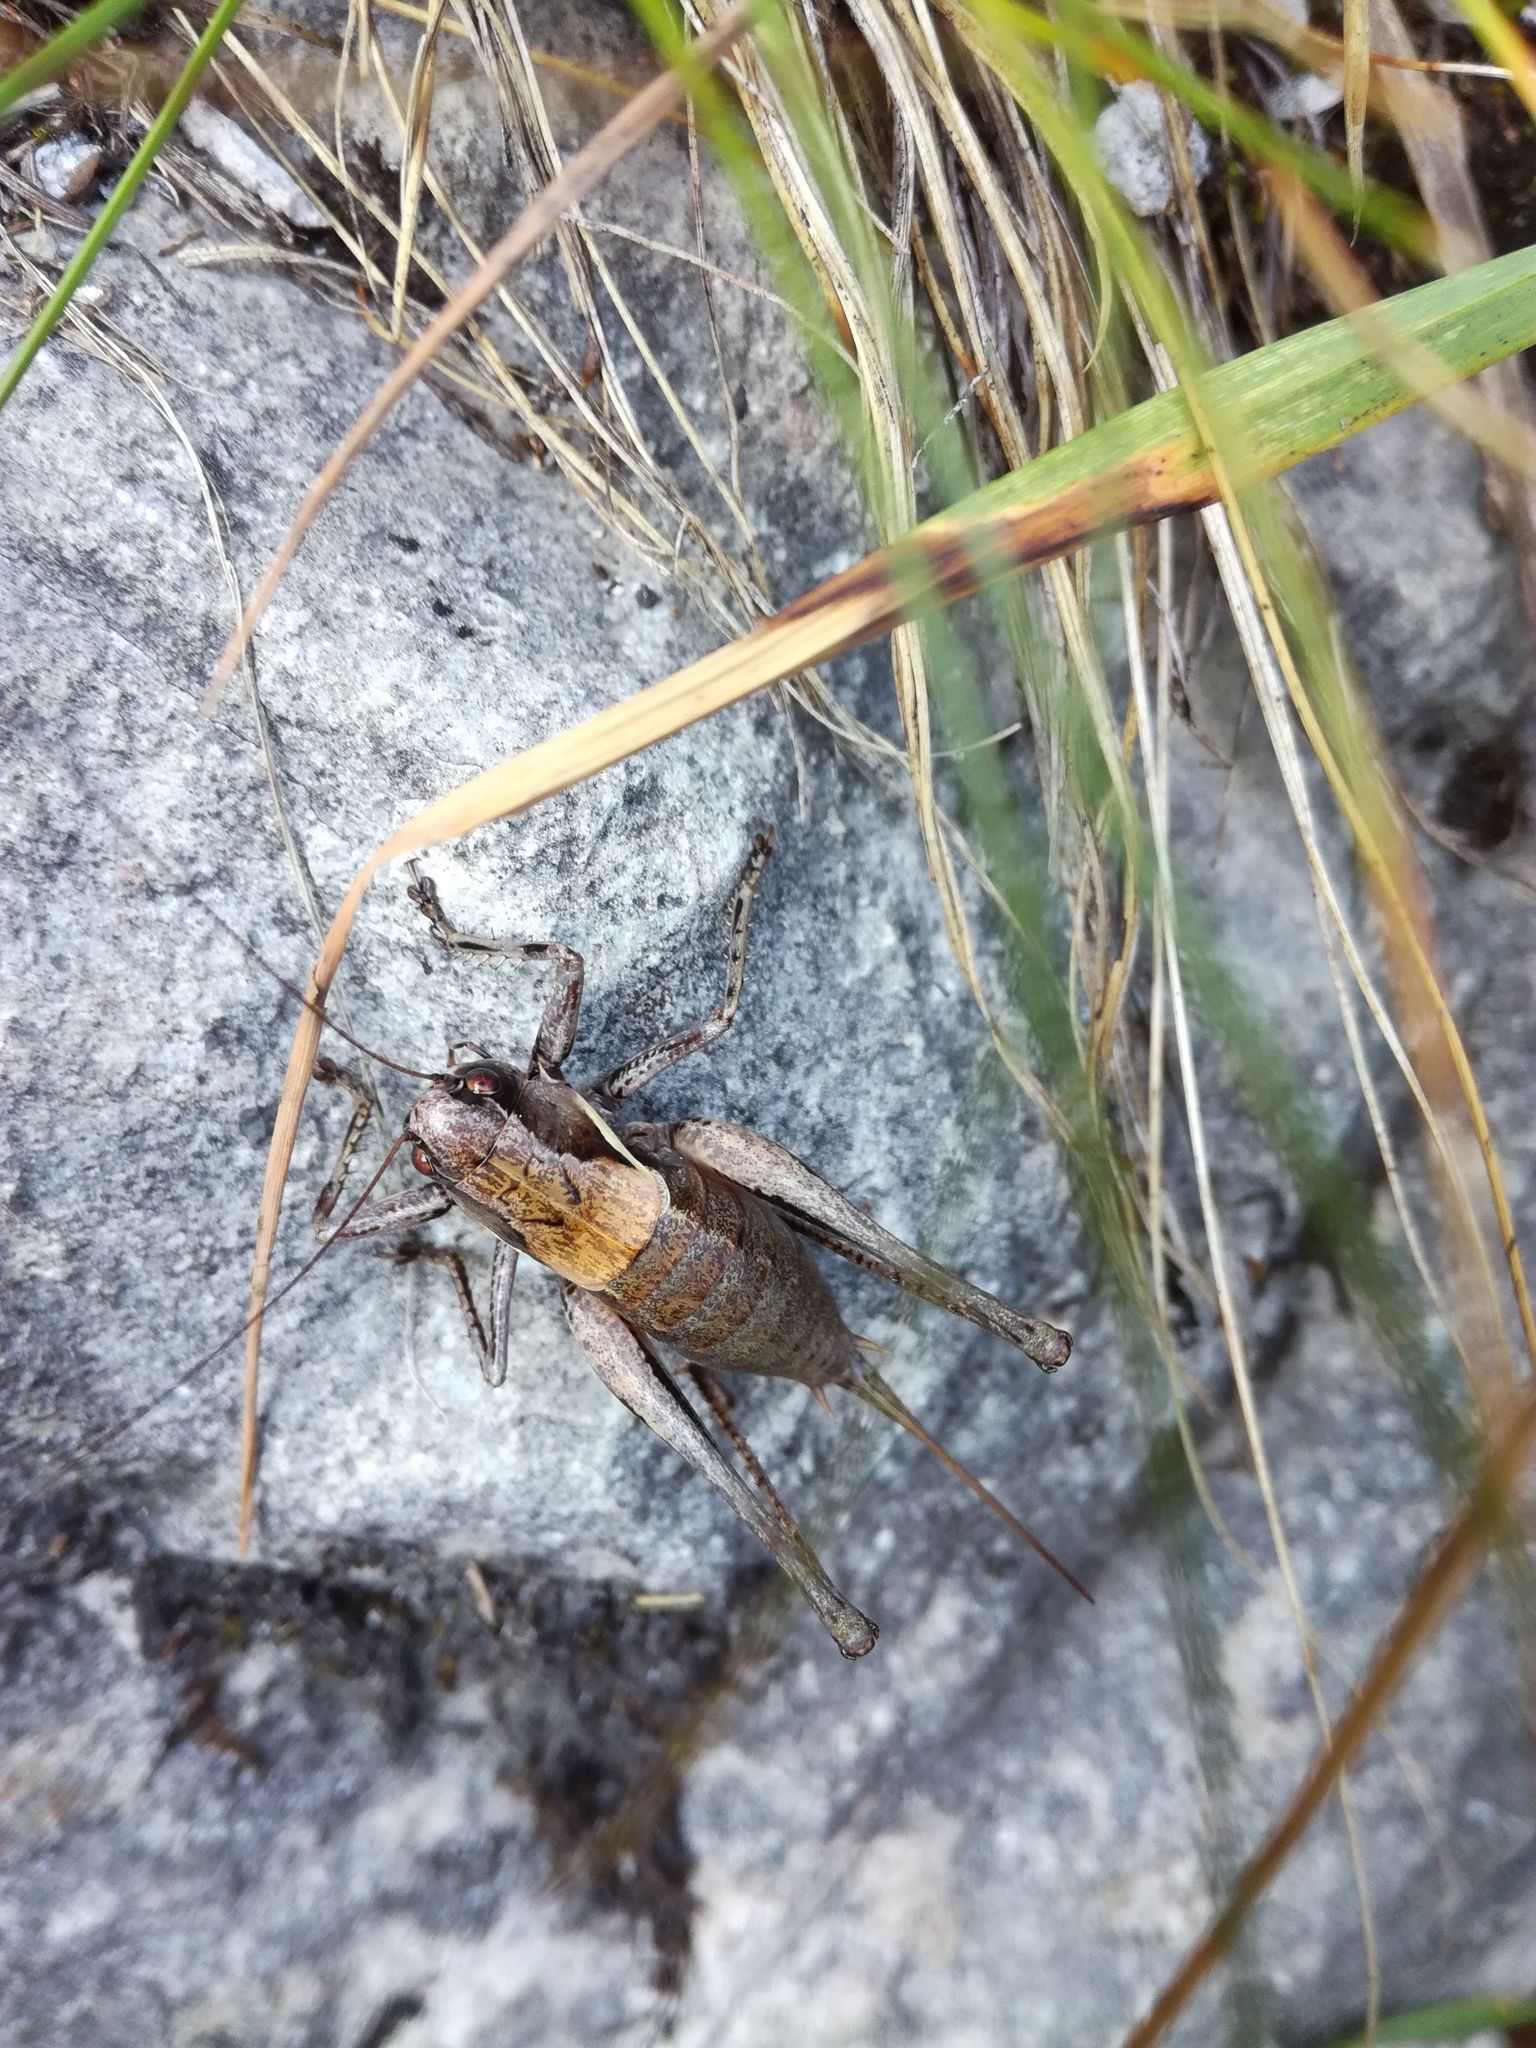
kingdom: Animalia
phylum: Arthropoda
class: Insecta
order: Orthoptera
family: Tettigoniidae
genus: Pholidoptera
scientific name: Pholidoptera aptera
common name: Alpine dark bush-cricket
